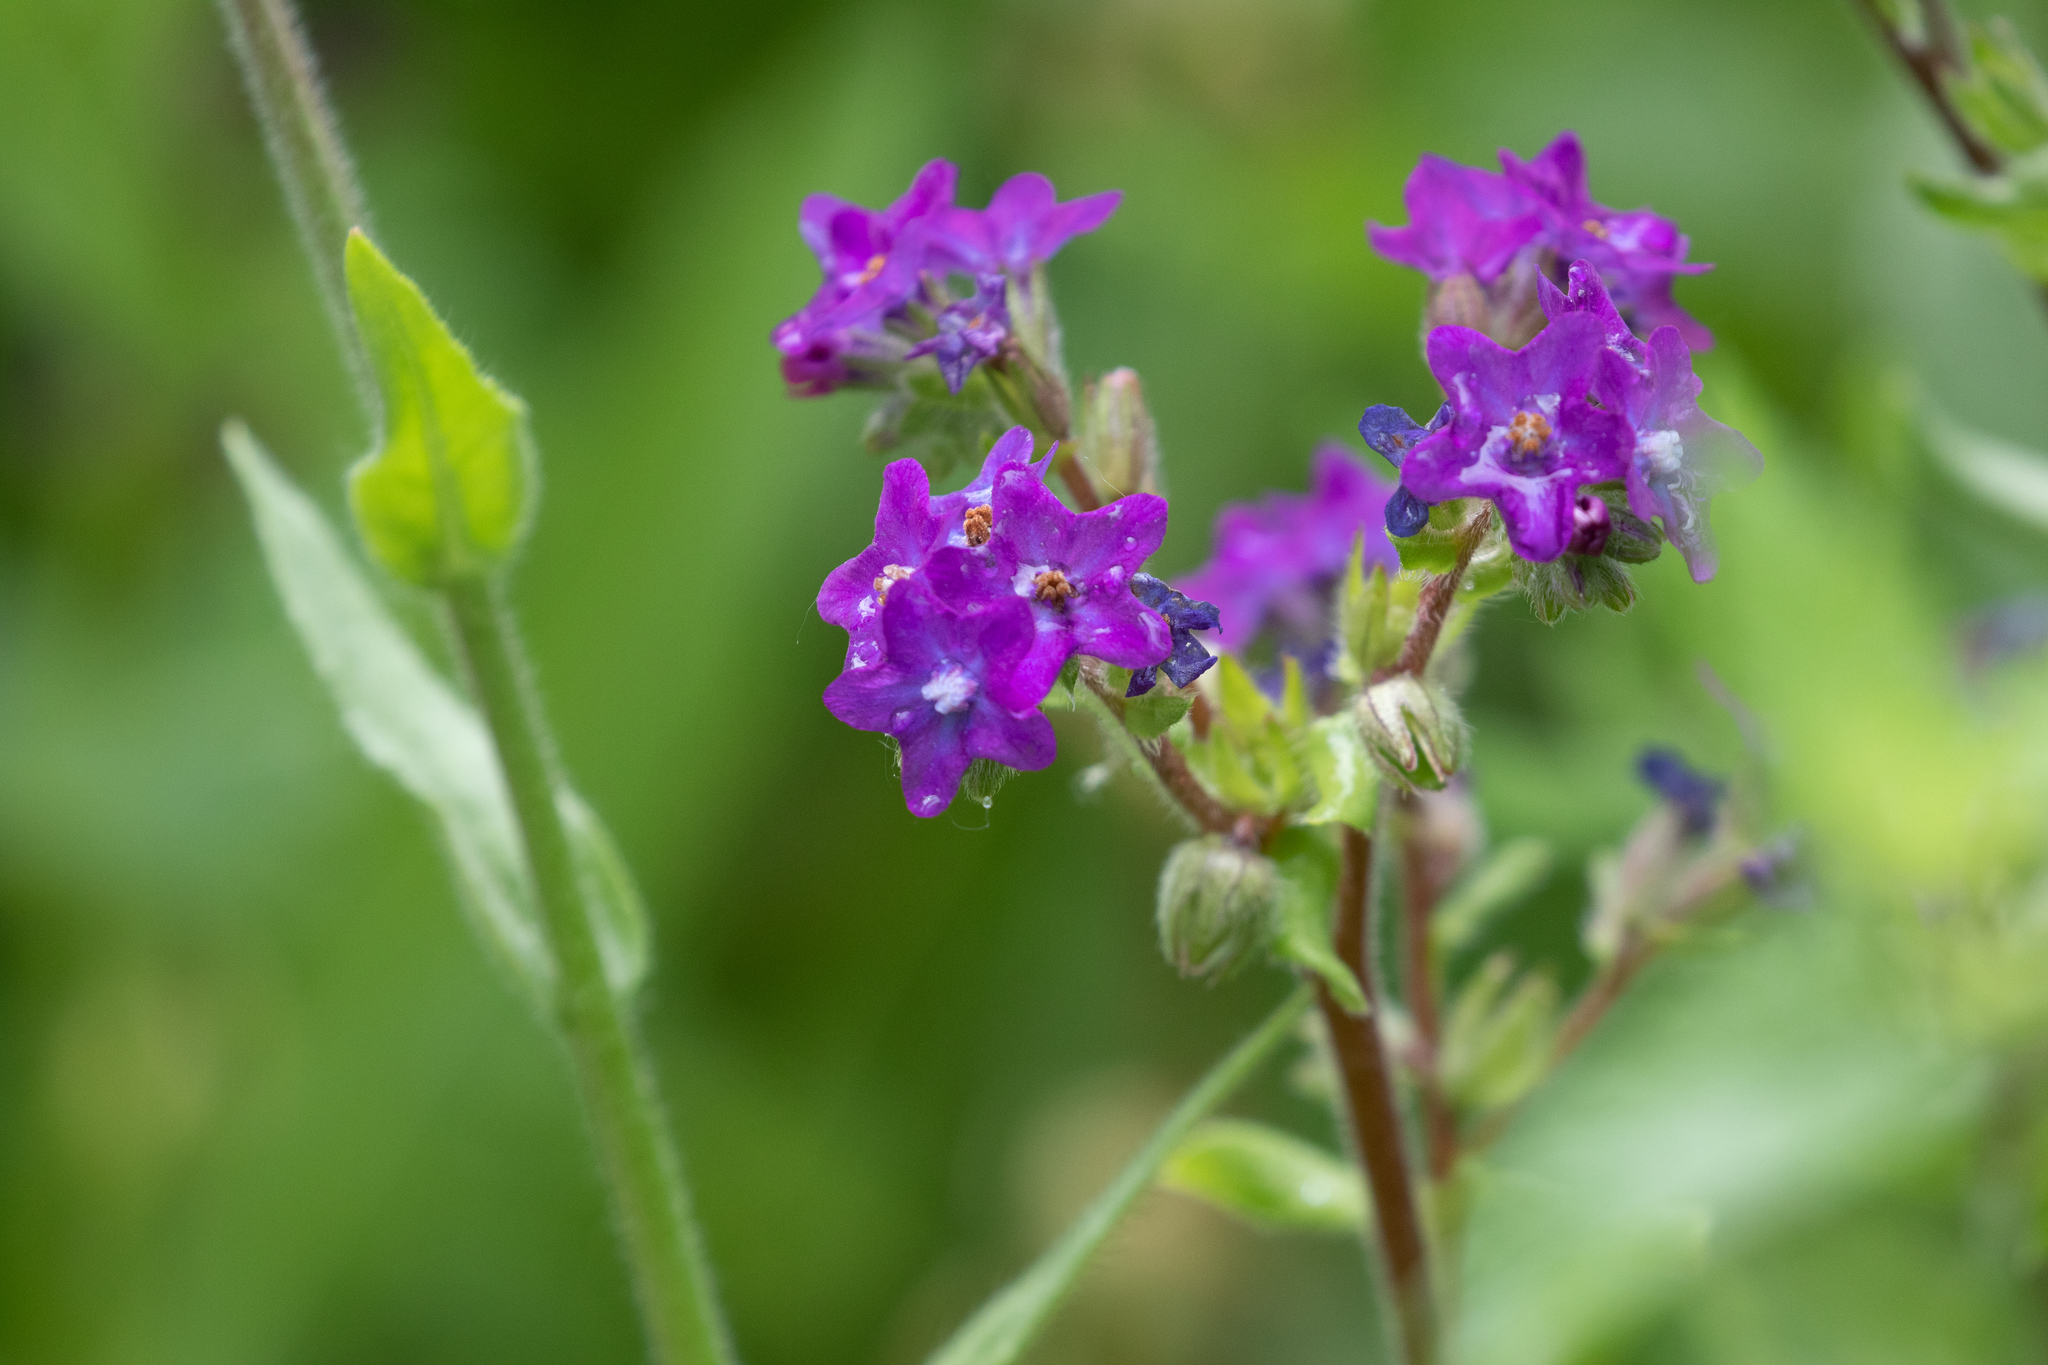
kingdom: Plantae
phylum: Tracheophyta
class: Magnoliopsida
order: Boraginales
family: Boraginaceae
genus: Anchusa
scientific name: Anchusa officinalis
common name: Alkanet
